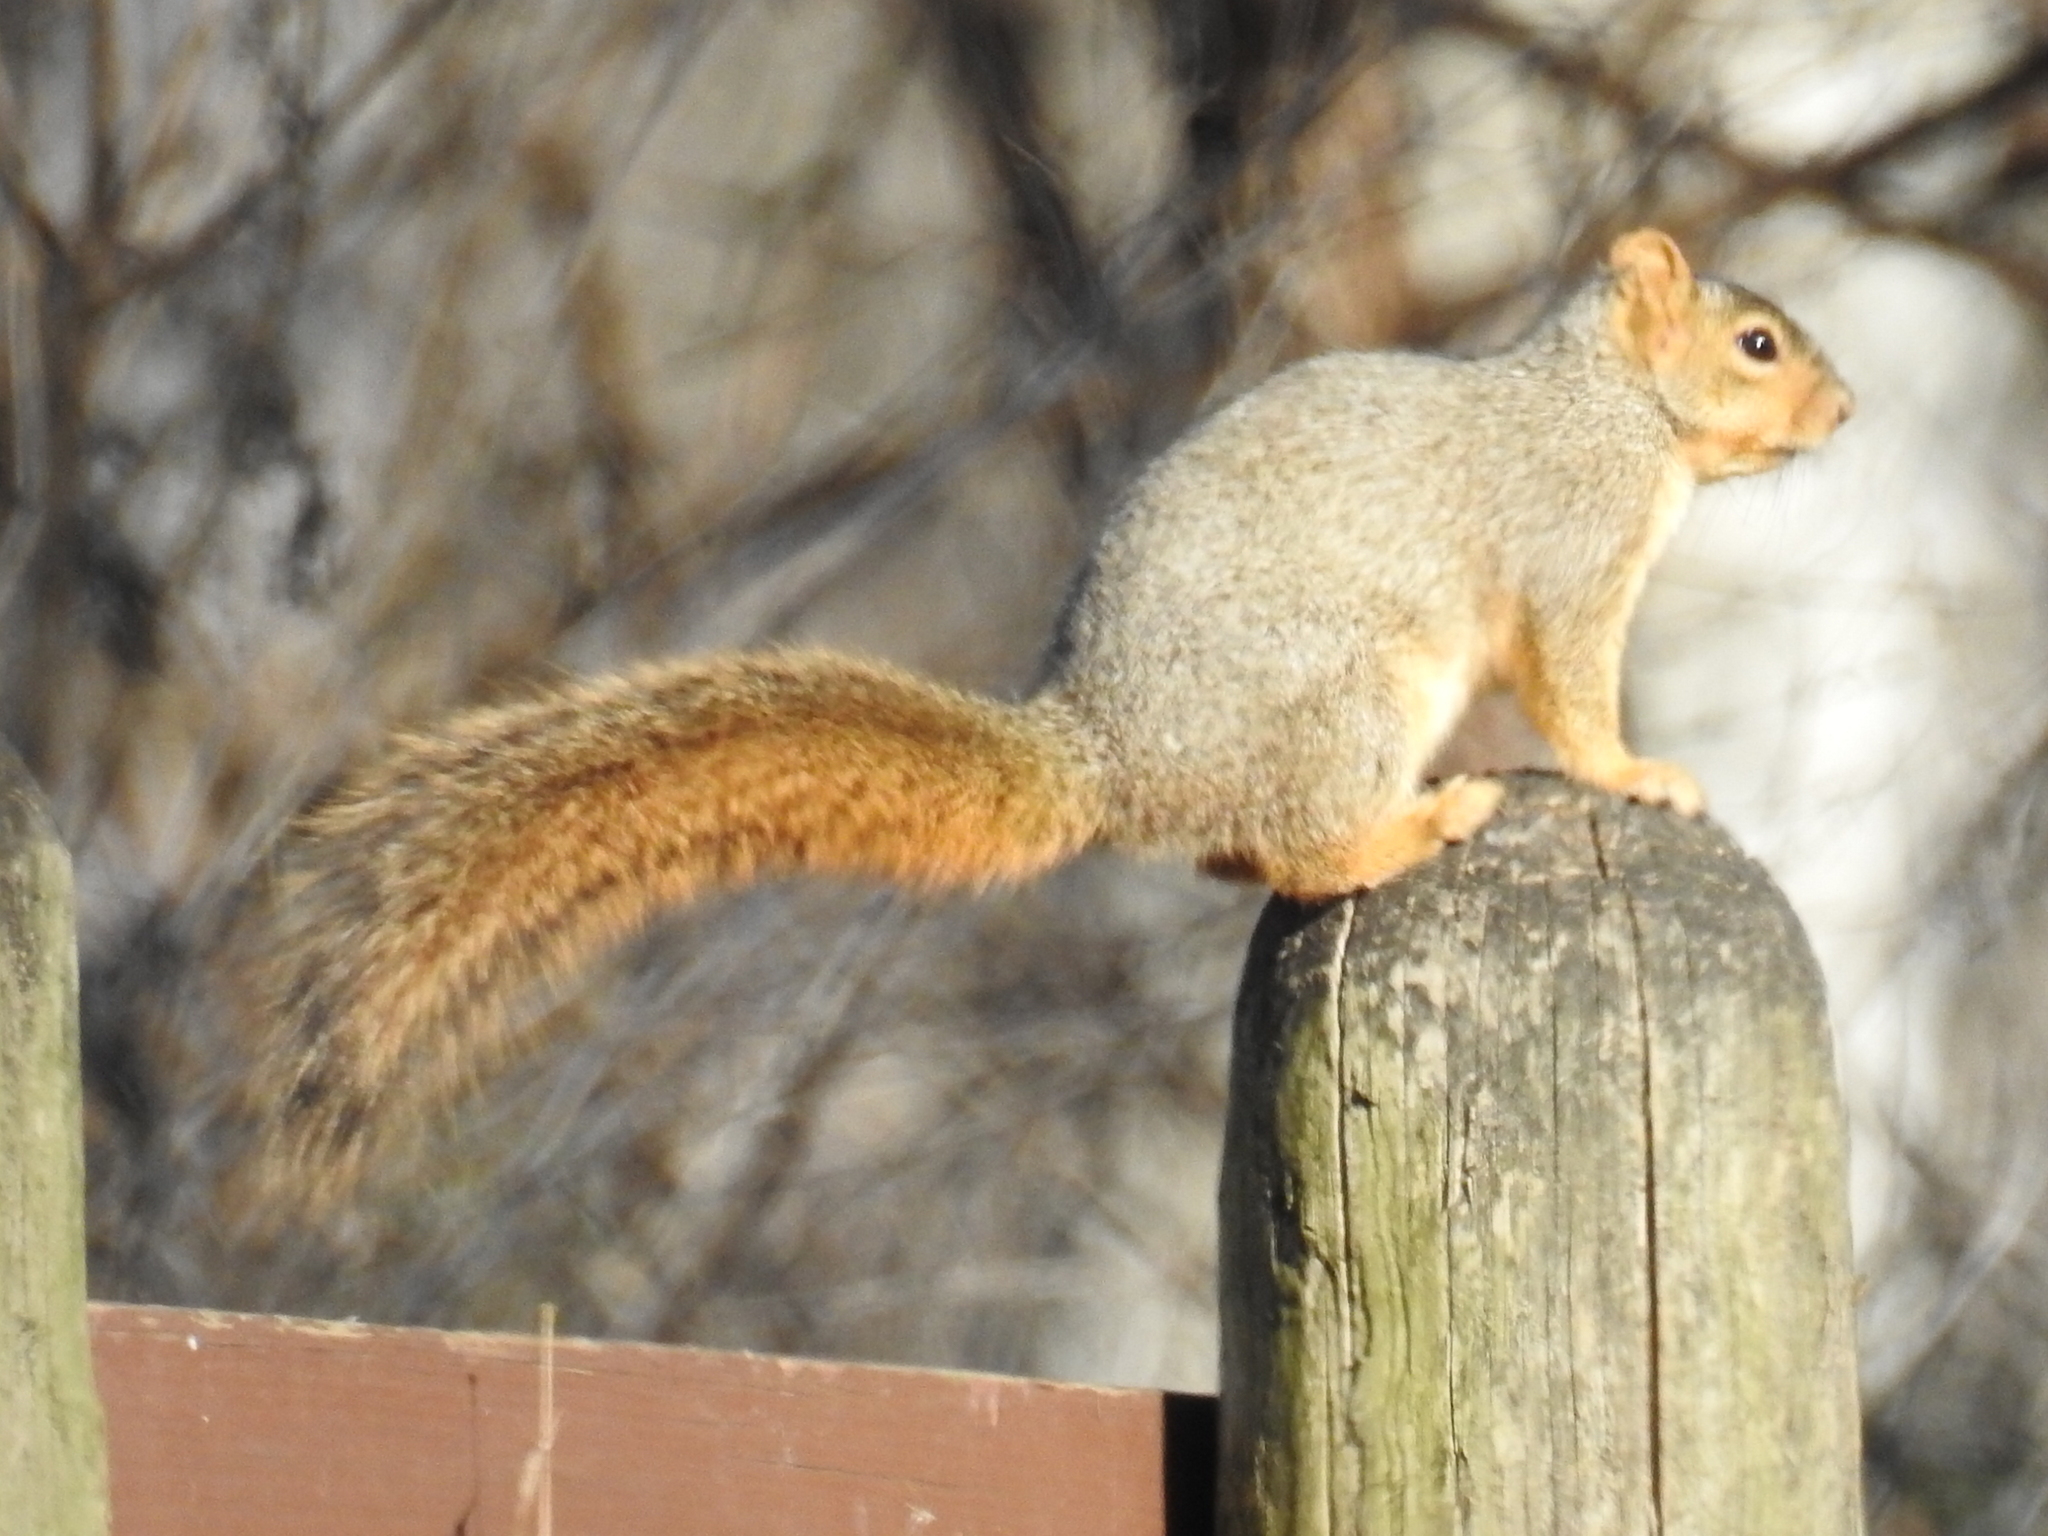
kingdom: Animalia
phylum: Chordata
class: Mammalia
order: Rodentia
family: Sciuridae
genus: Sciurus
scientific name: Sciurus niger
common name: Fox squirrel
